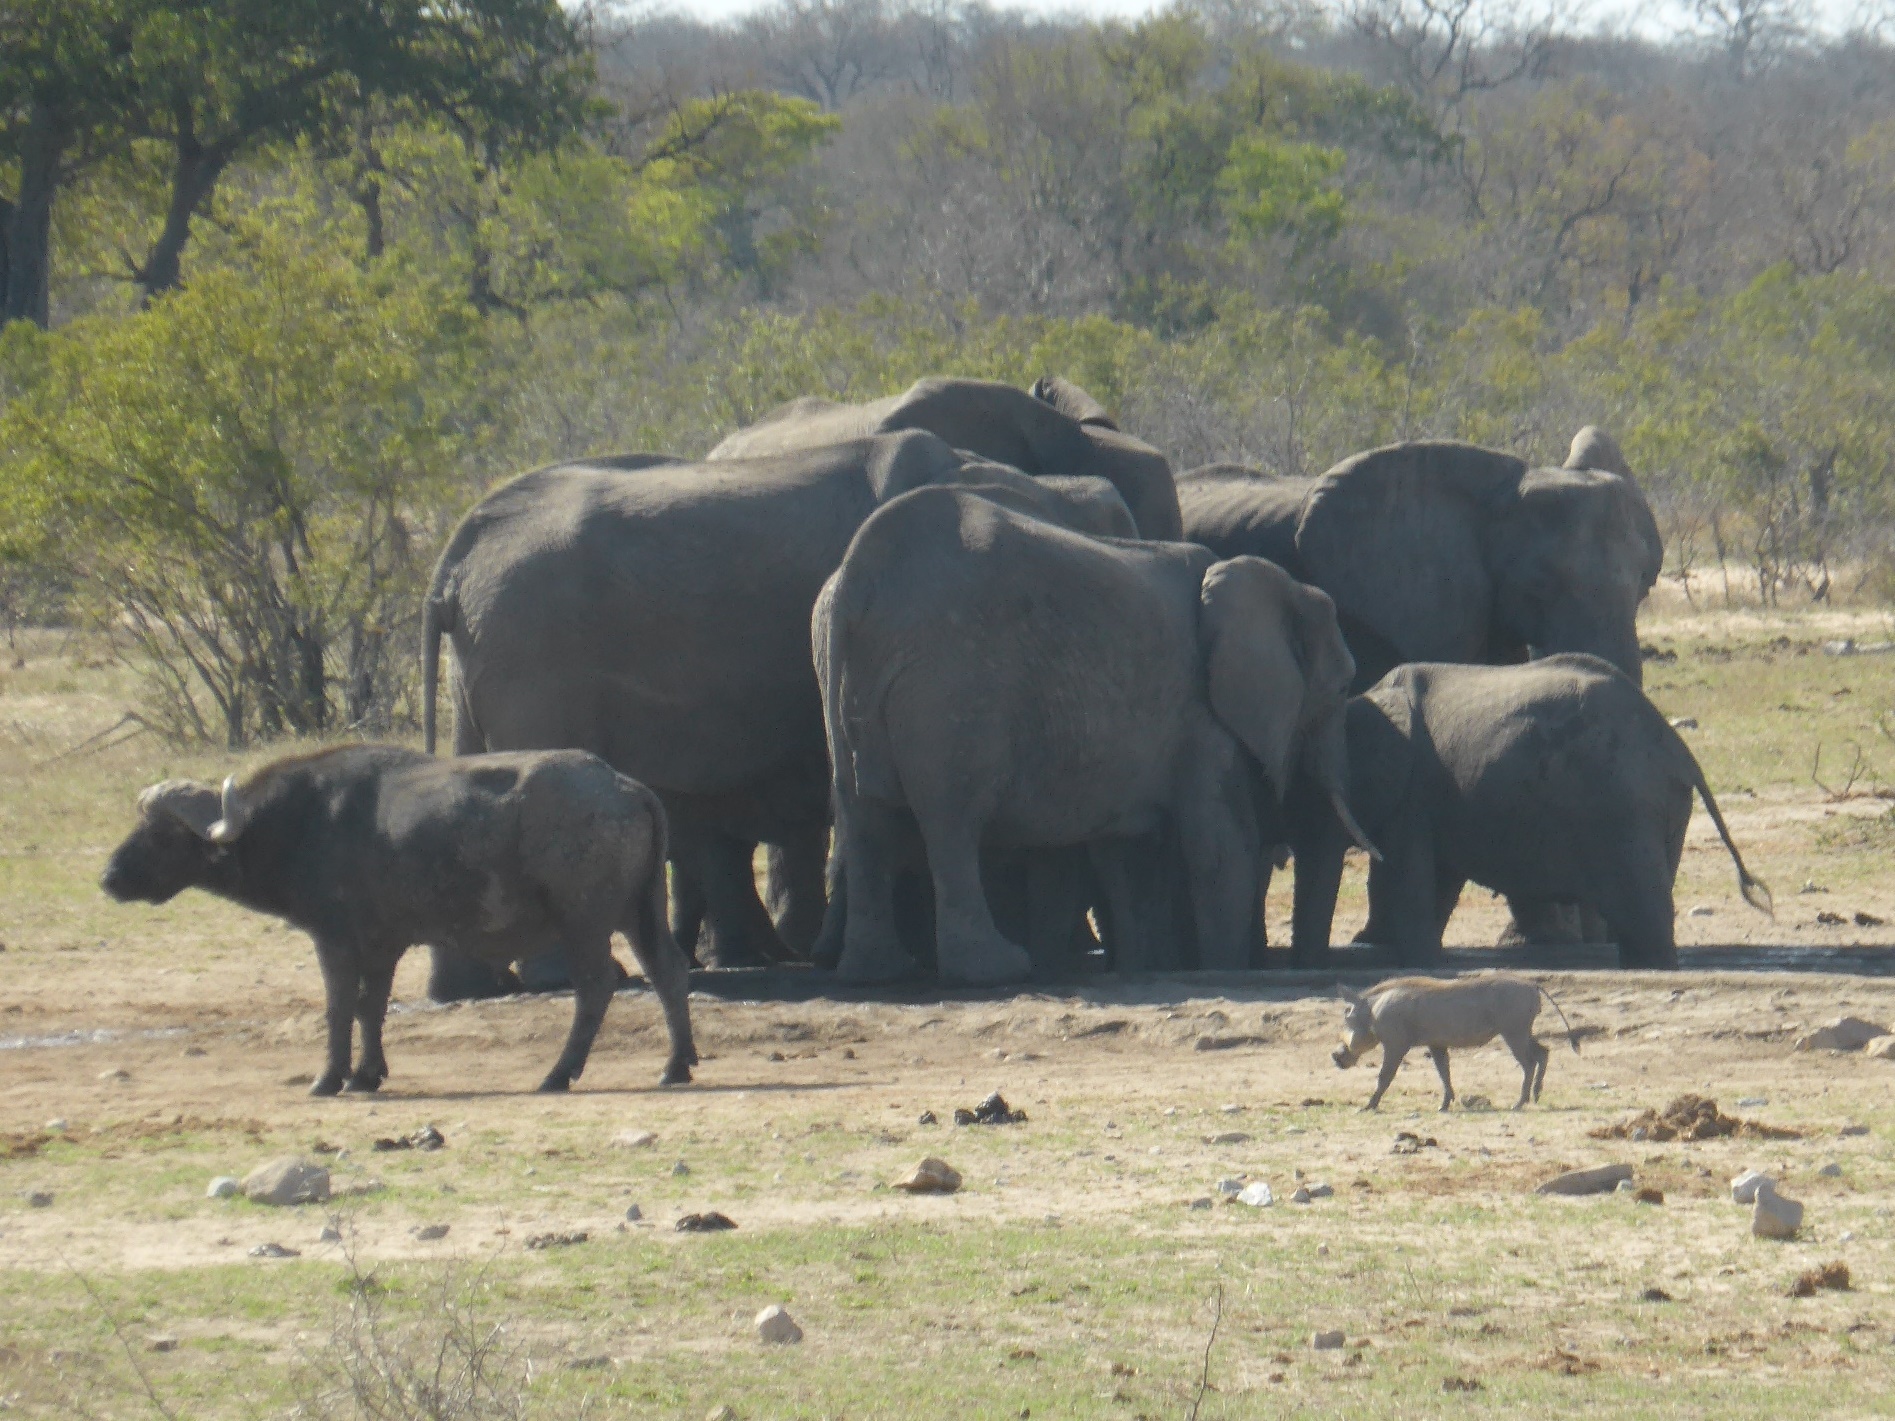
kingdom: Animalia
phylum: Chordata
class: Mammalia
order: Artiodactyla
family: Suidae
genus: Phacochoerus
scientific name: Phacochoerus africanus
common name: Common warthog
